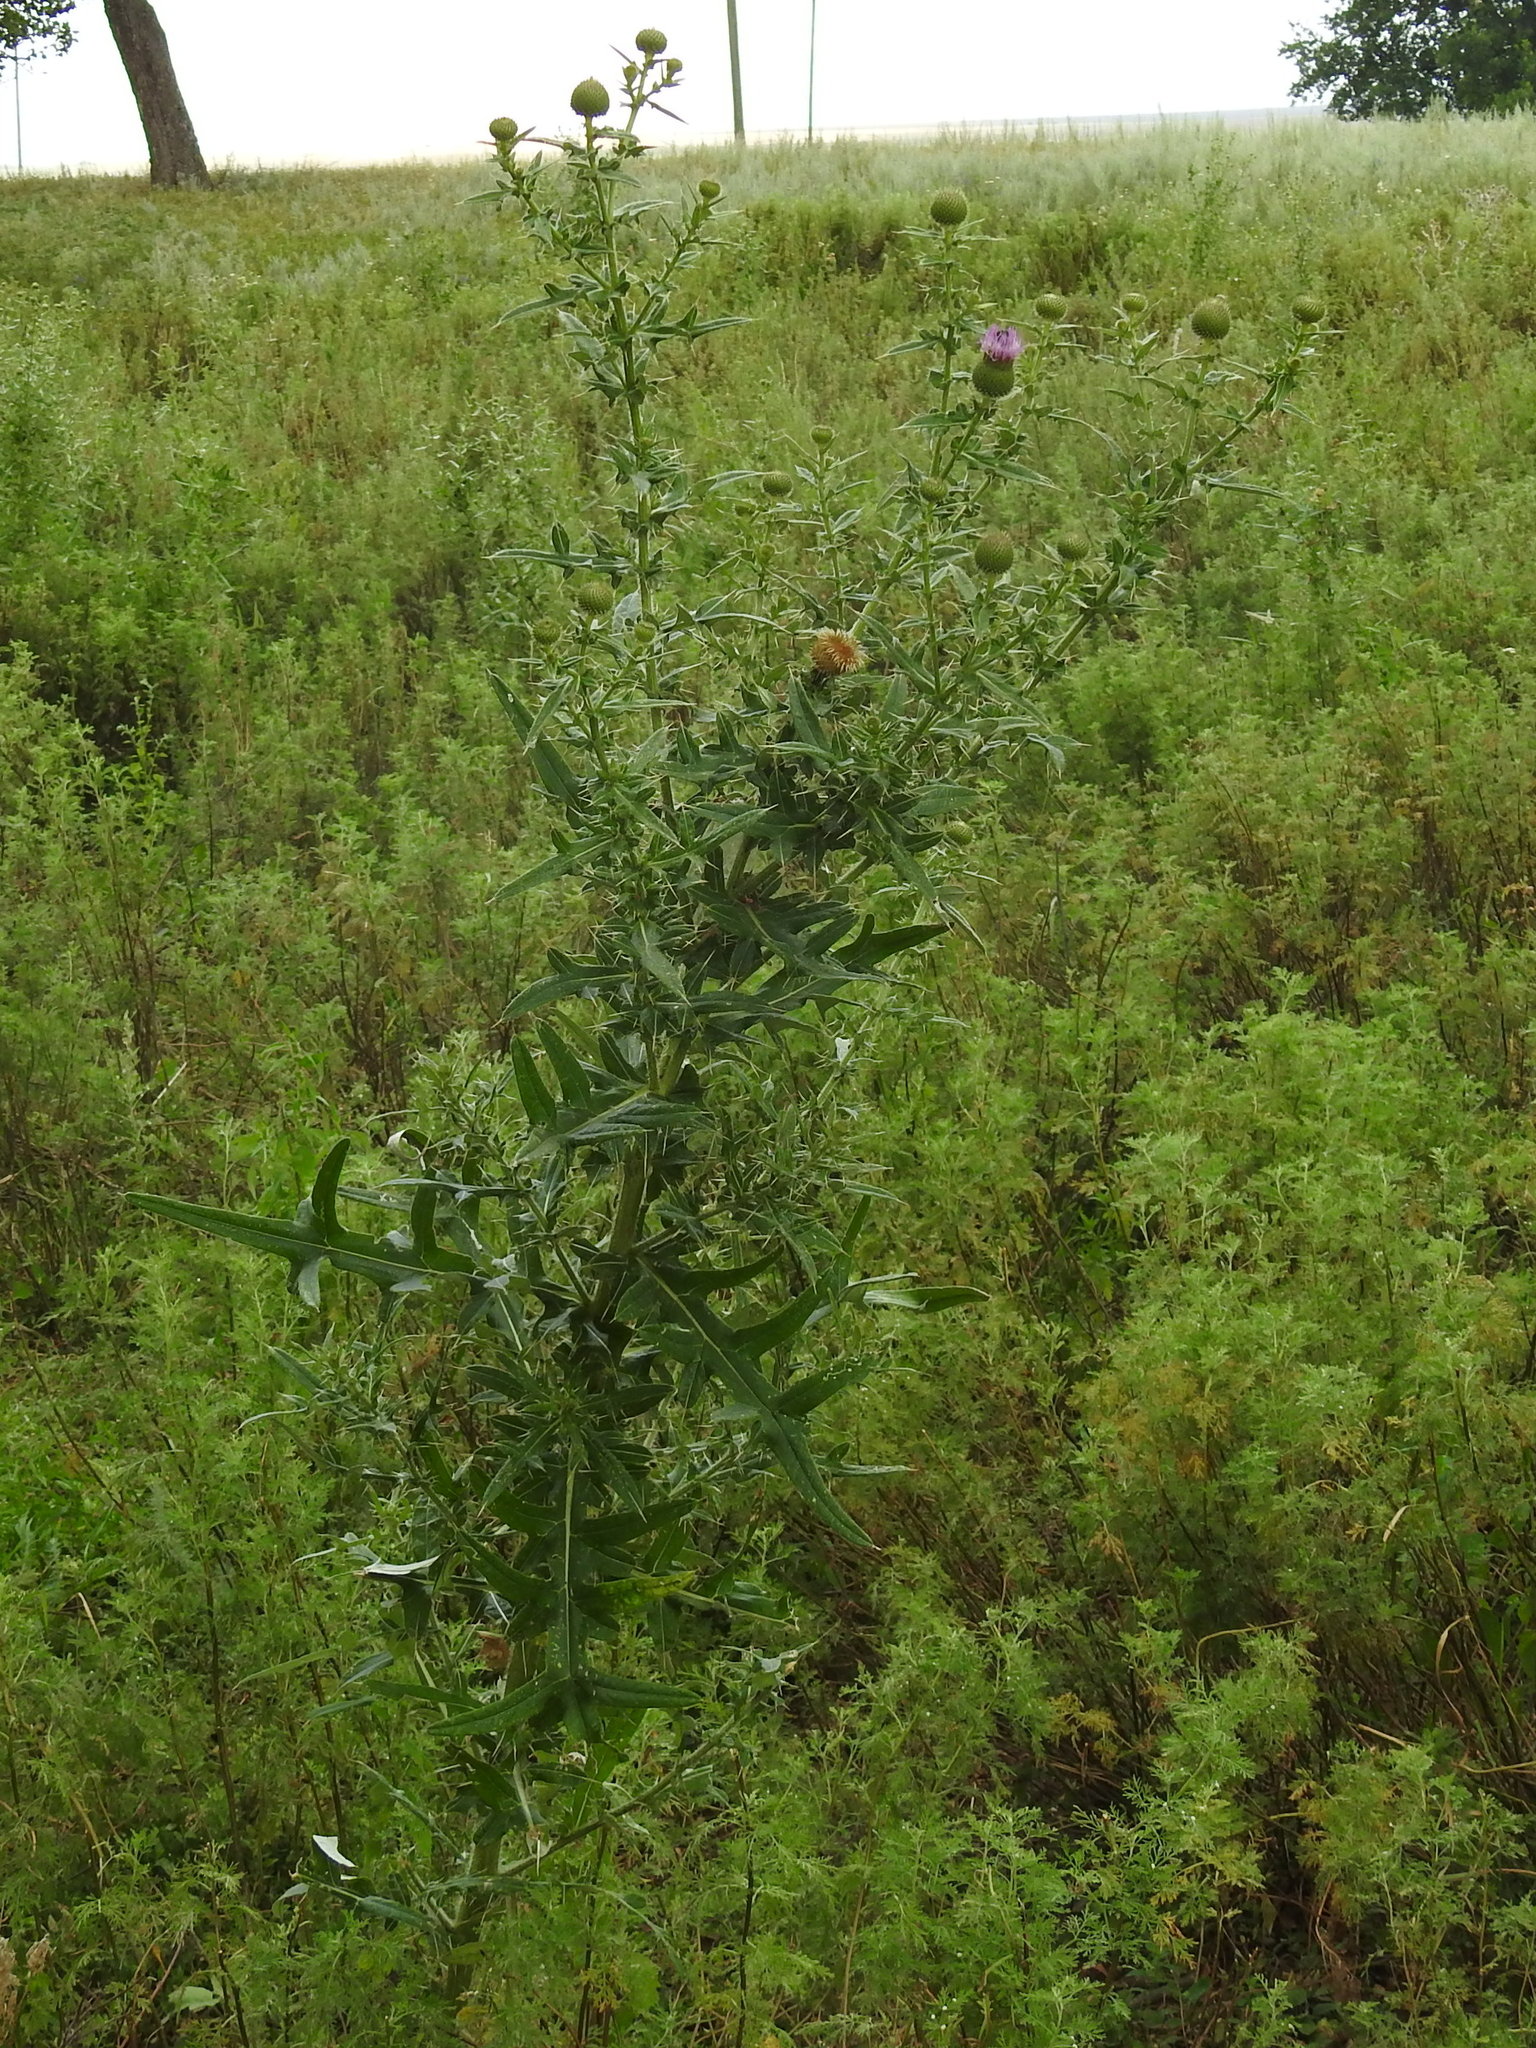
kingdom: Plantae
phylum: Tracheophyta
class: Magnoliopsida
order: Asterales
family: Asteraceae
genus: Cirsium
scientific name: Cirsium serrulatum
